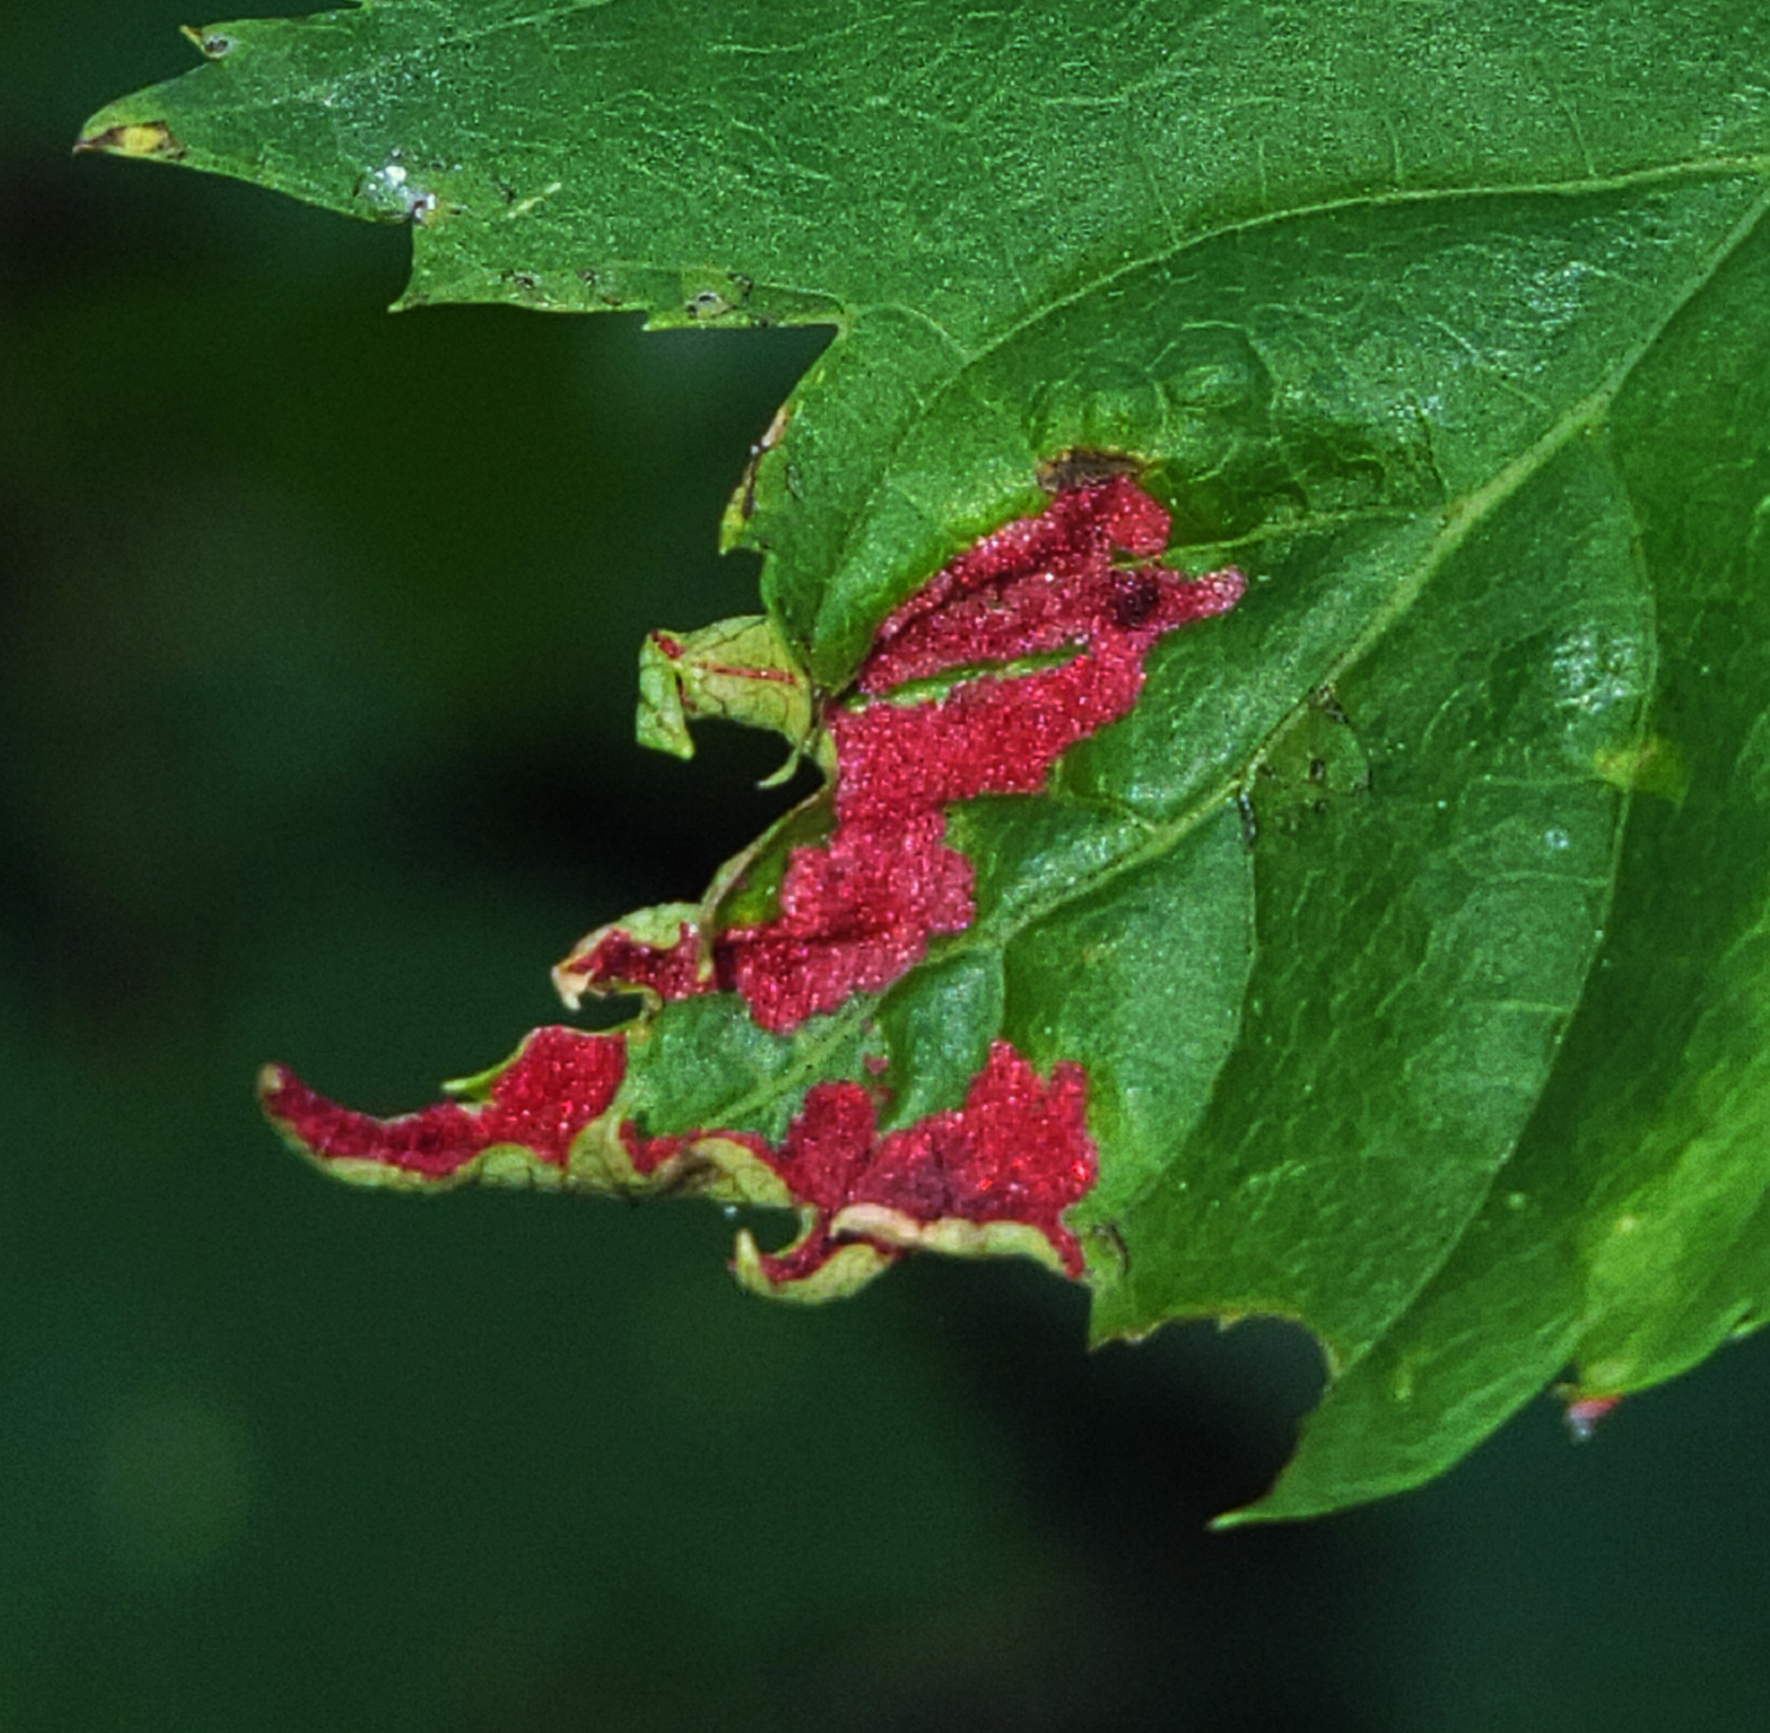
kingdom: Animalia
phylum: Arthropoda
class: Arachnida
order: Trombidiformes
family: Eriophyidae
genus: Aceria
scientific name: Aceria
